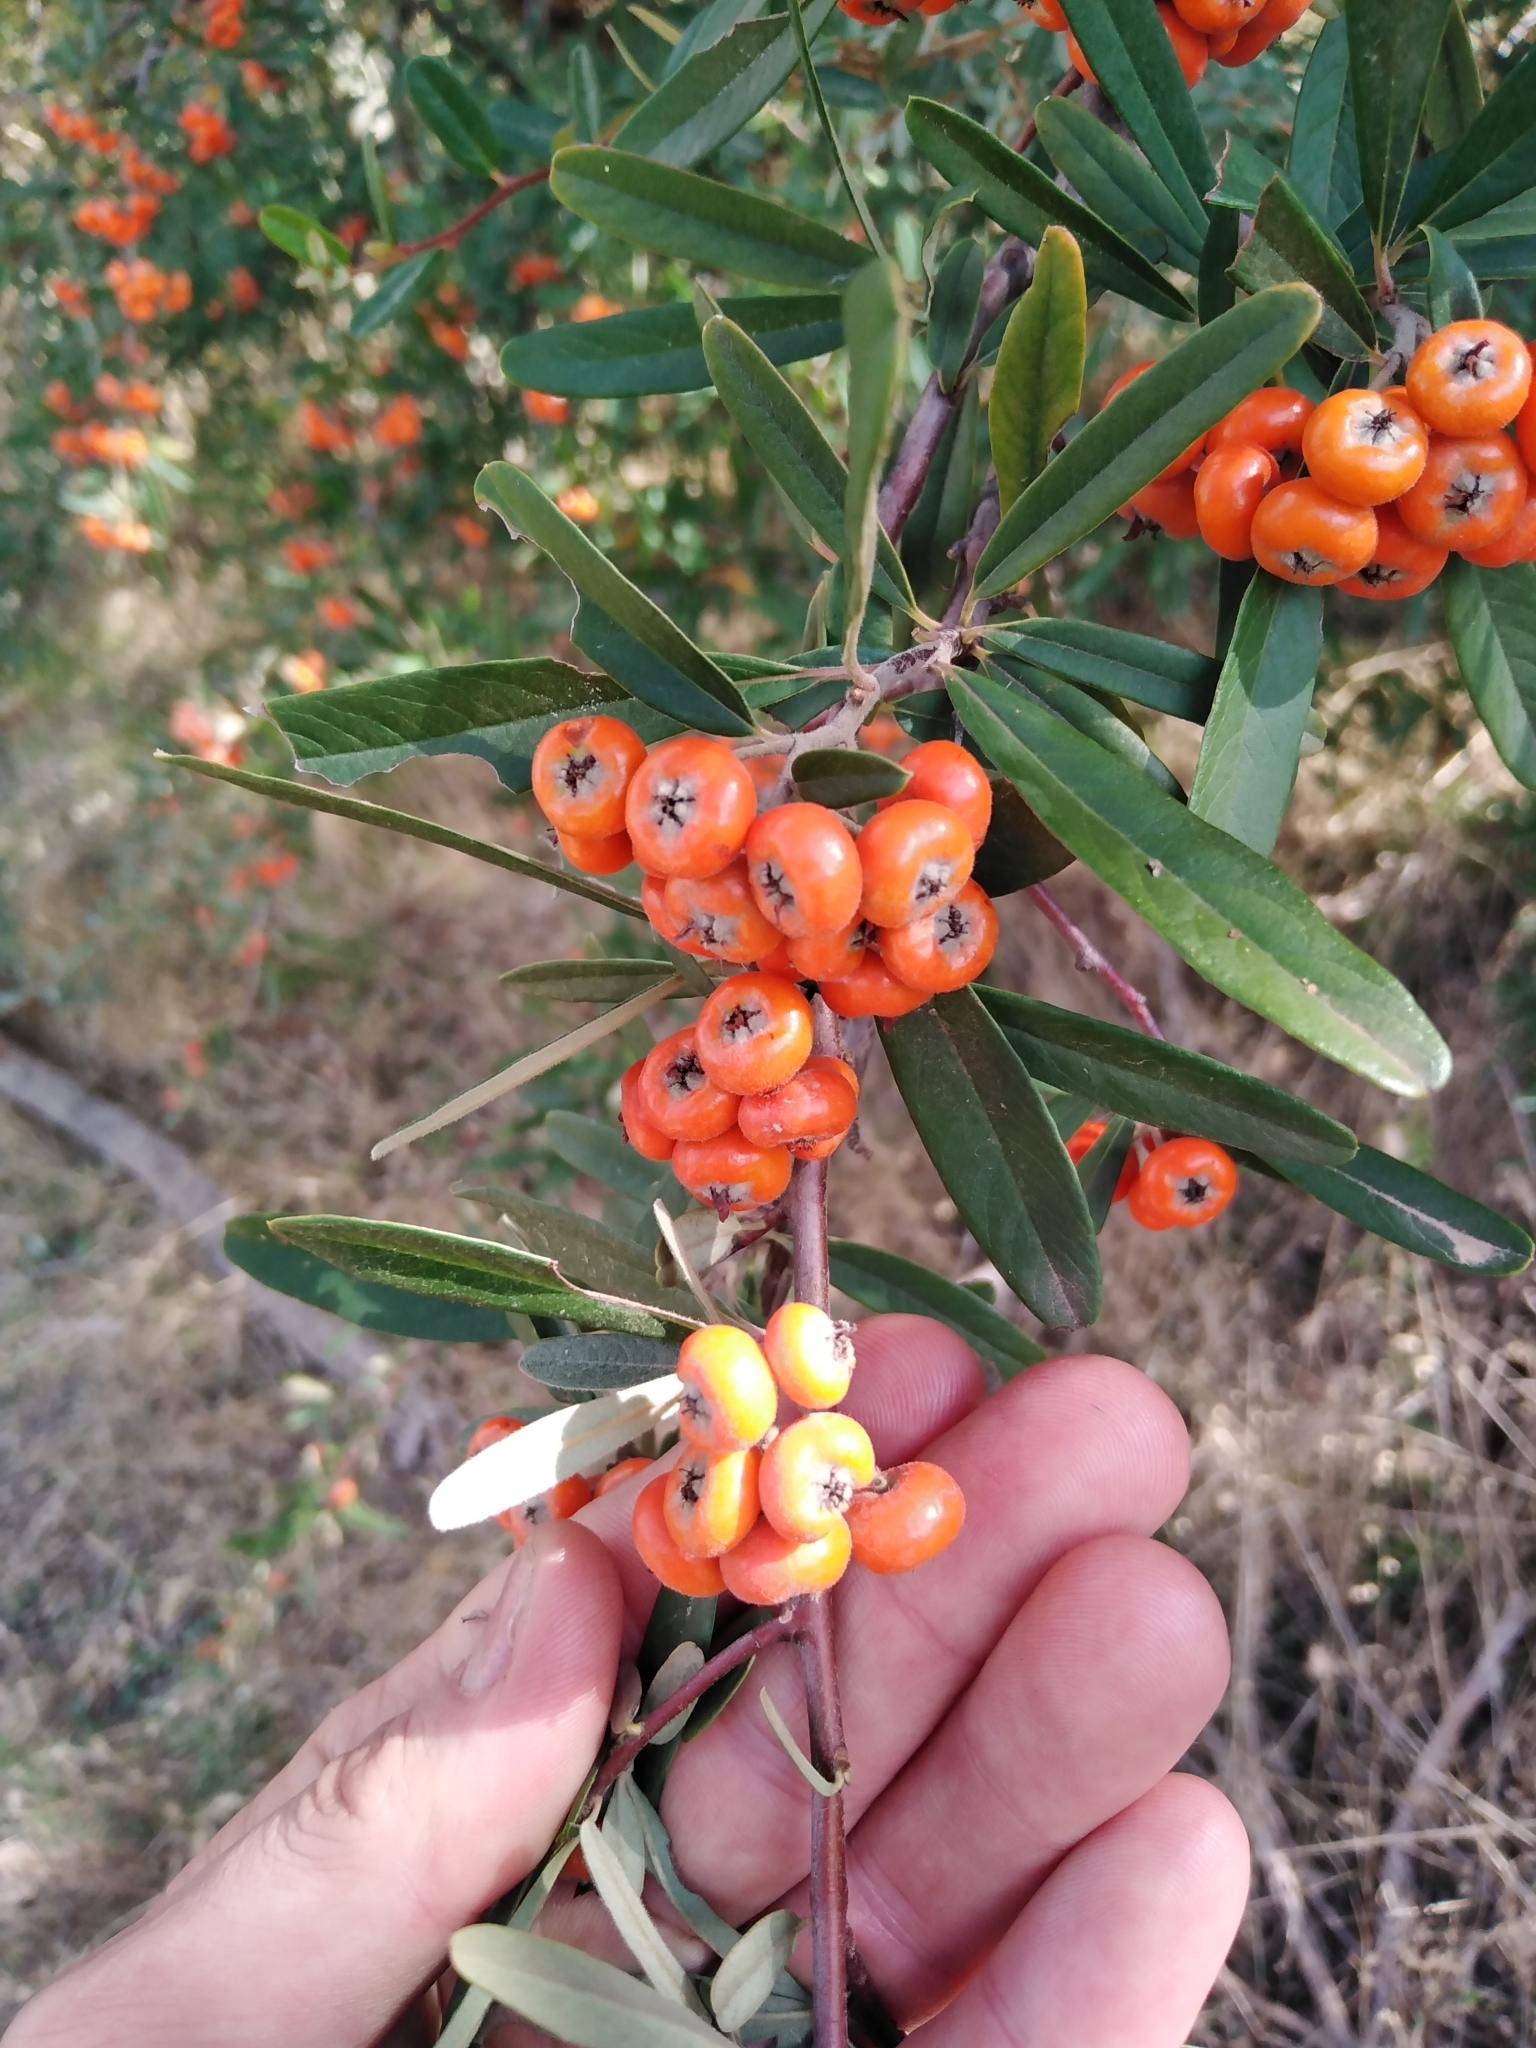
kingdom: Plantae
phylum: Tracheophyta
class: Magnoliopsida
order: Rosales
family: Rosaceae
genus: Pyracantha
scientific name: Pyracantha angustifolia
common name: Narrowleaf firethorn
